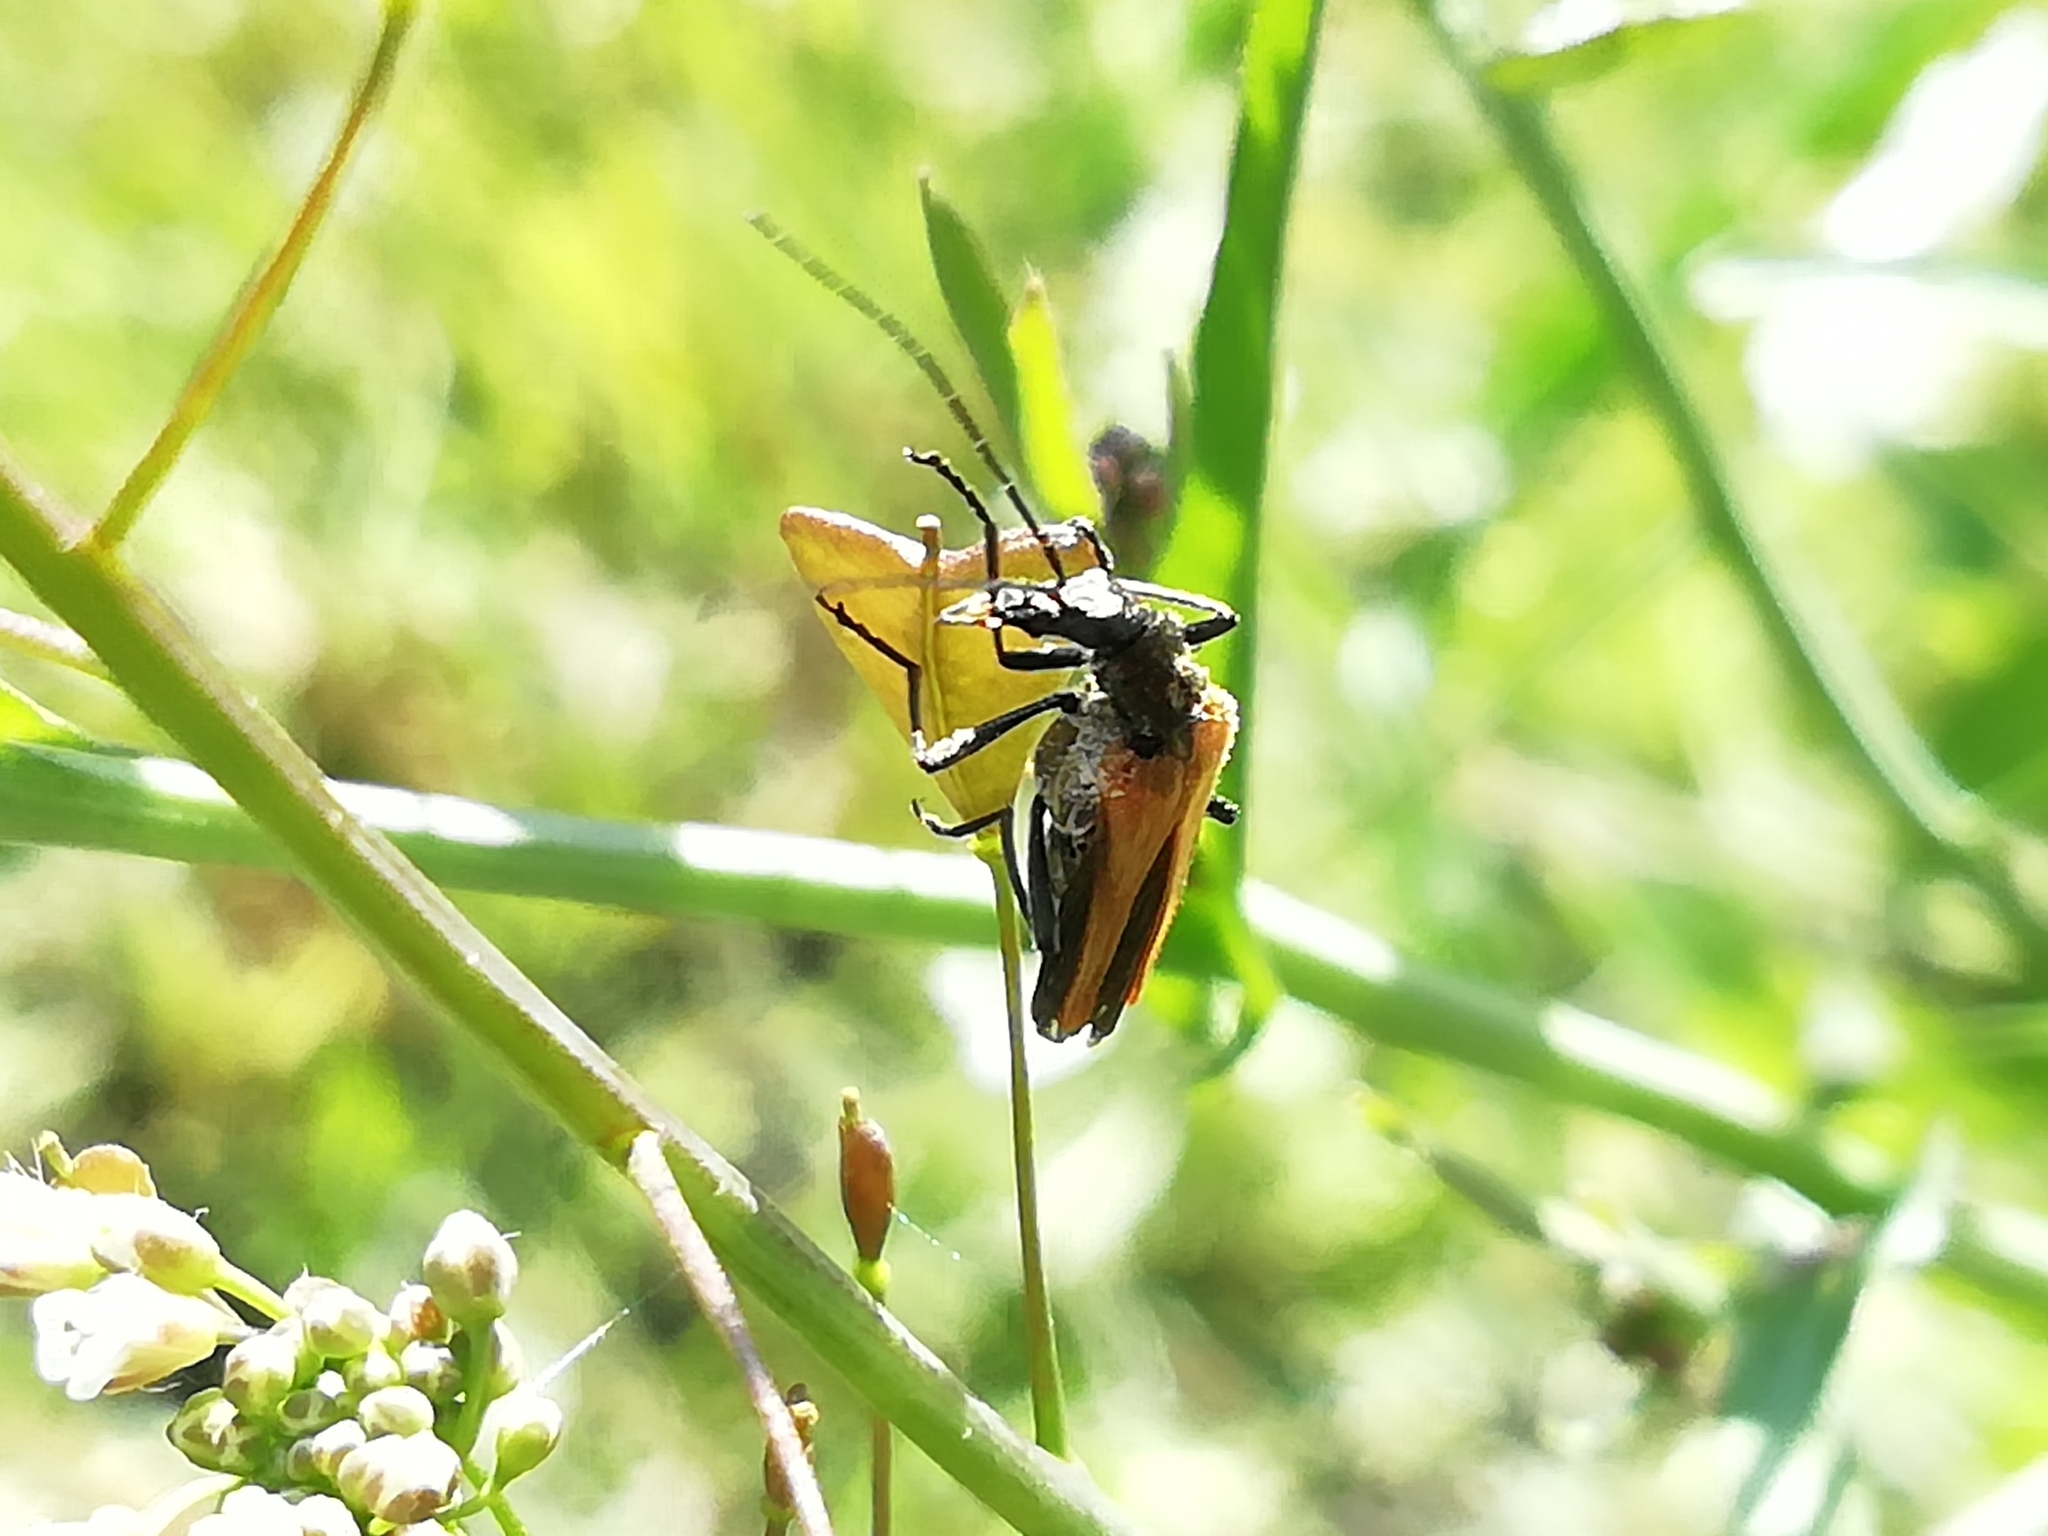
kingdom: Animalia
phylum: Arthropoda
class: Insecta
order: Coleoptera
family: Oedemeridae
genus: Oedemera
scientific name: Oedemera femorata
